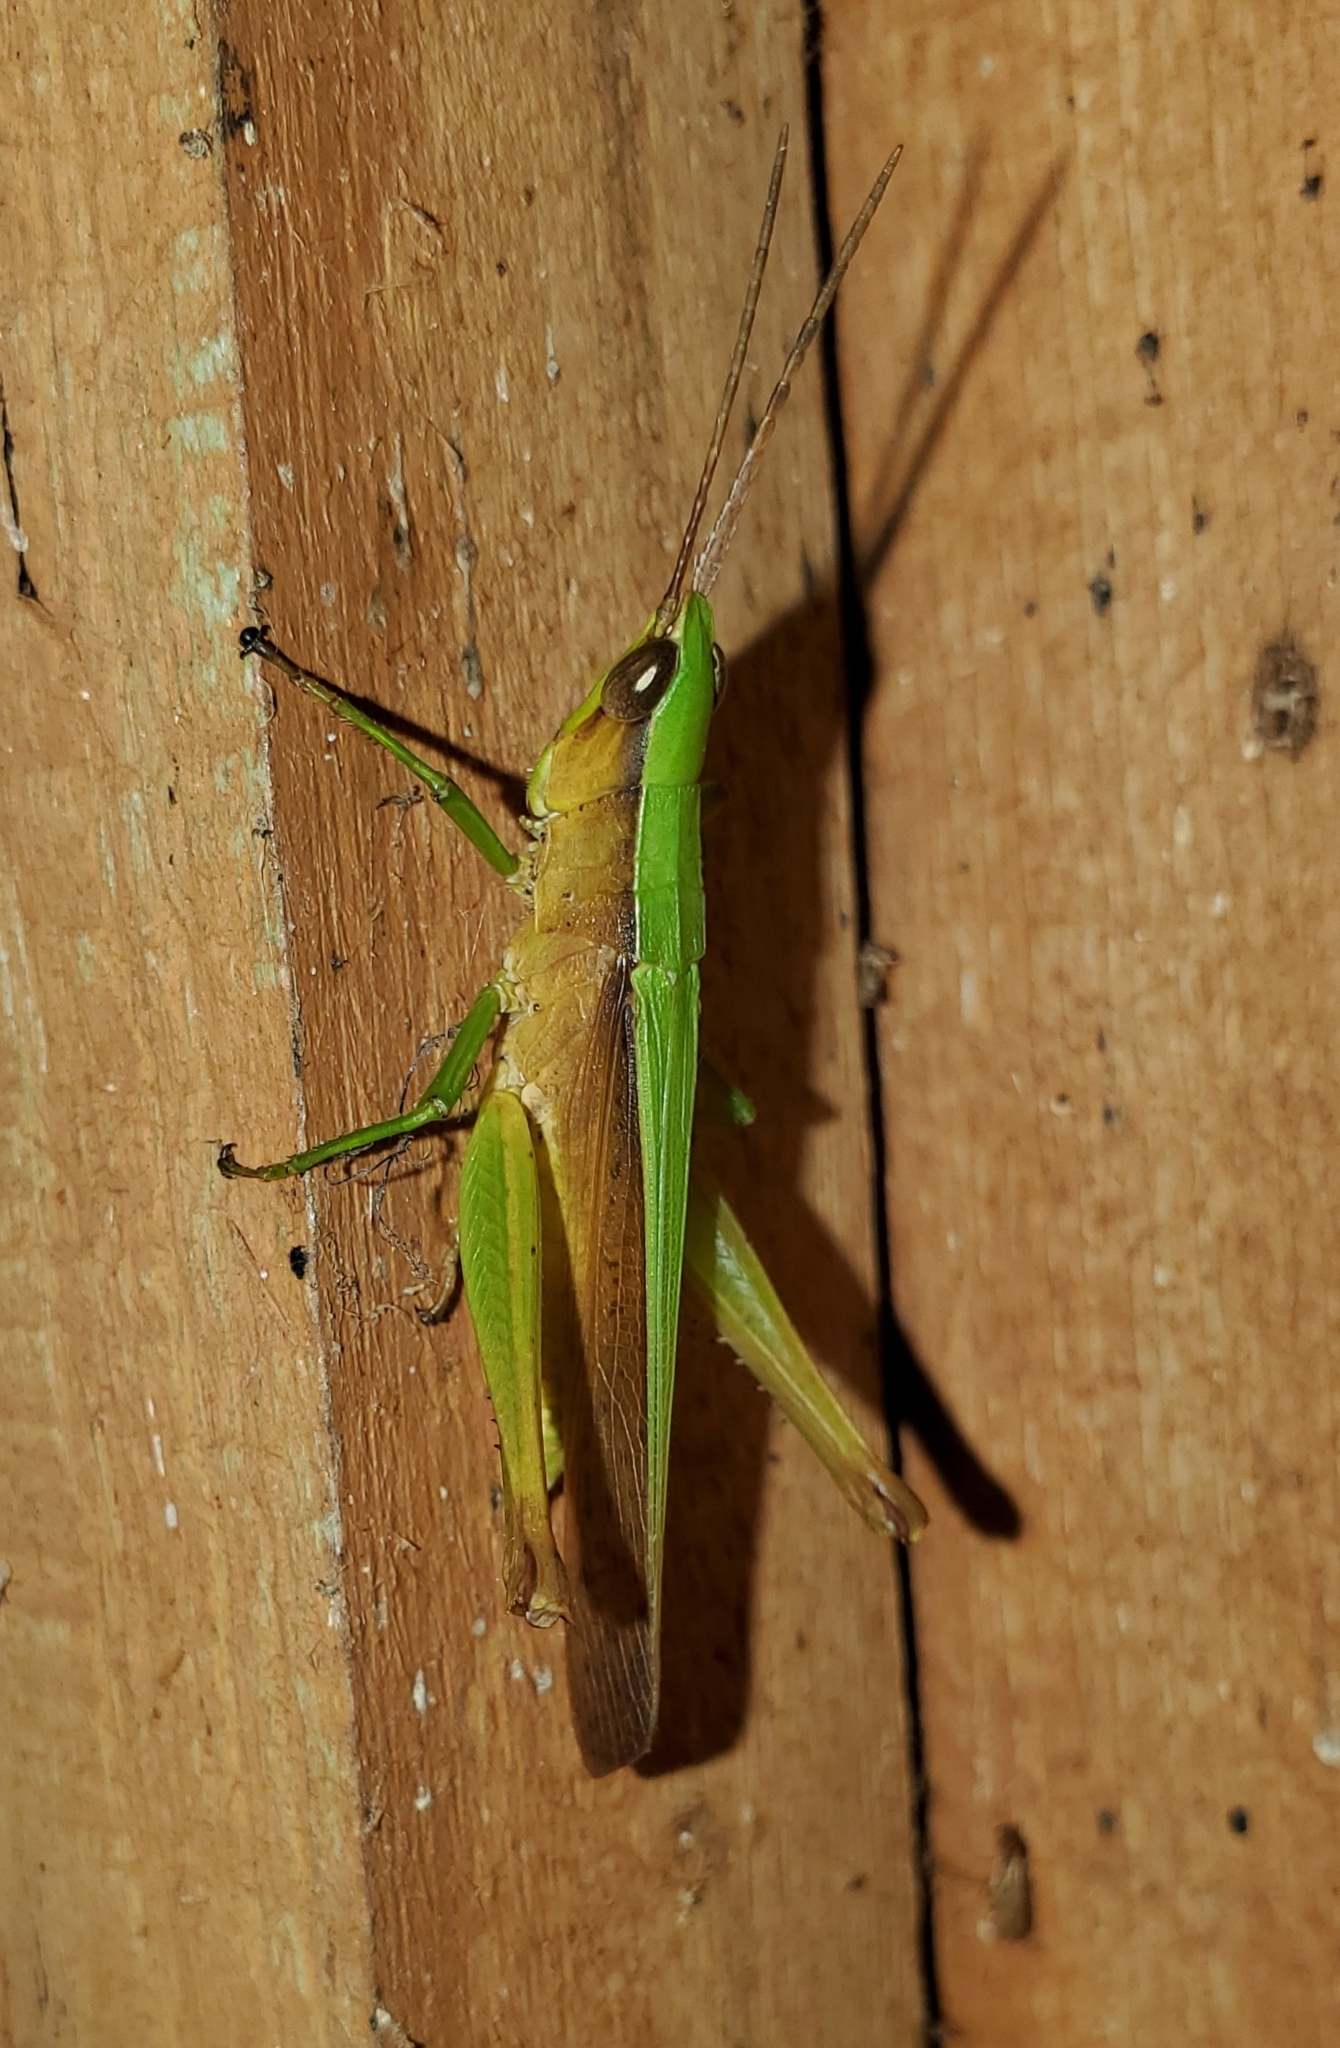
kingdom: Animalia
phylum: Arthropoda
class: Insecta
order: Orthoptera
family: Acrididae
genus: Metaleptea
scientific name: Metaleptea brevicornis
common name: Clipped-wing grasshopper
